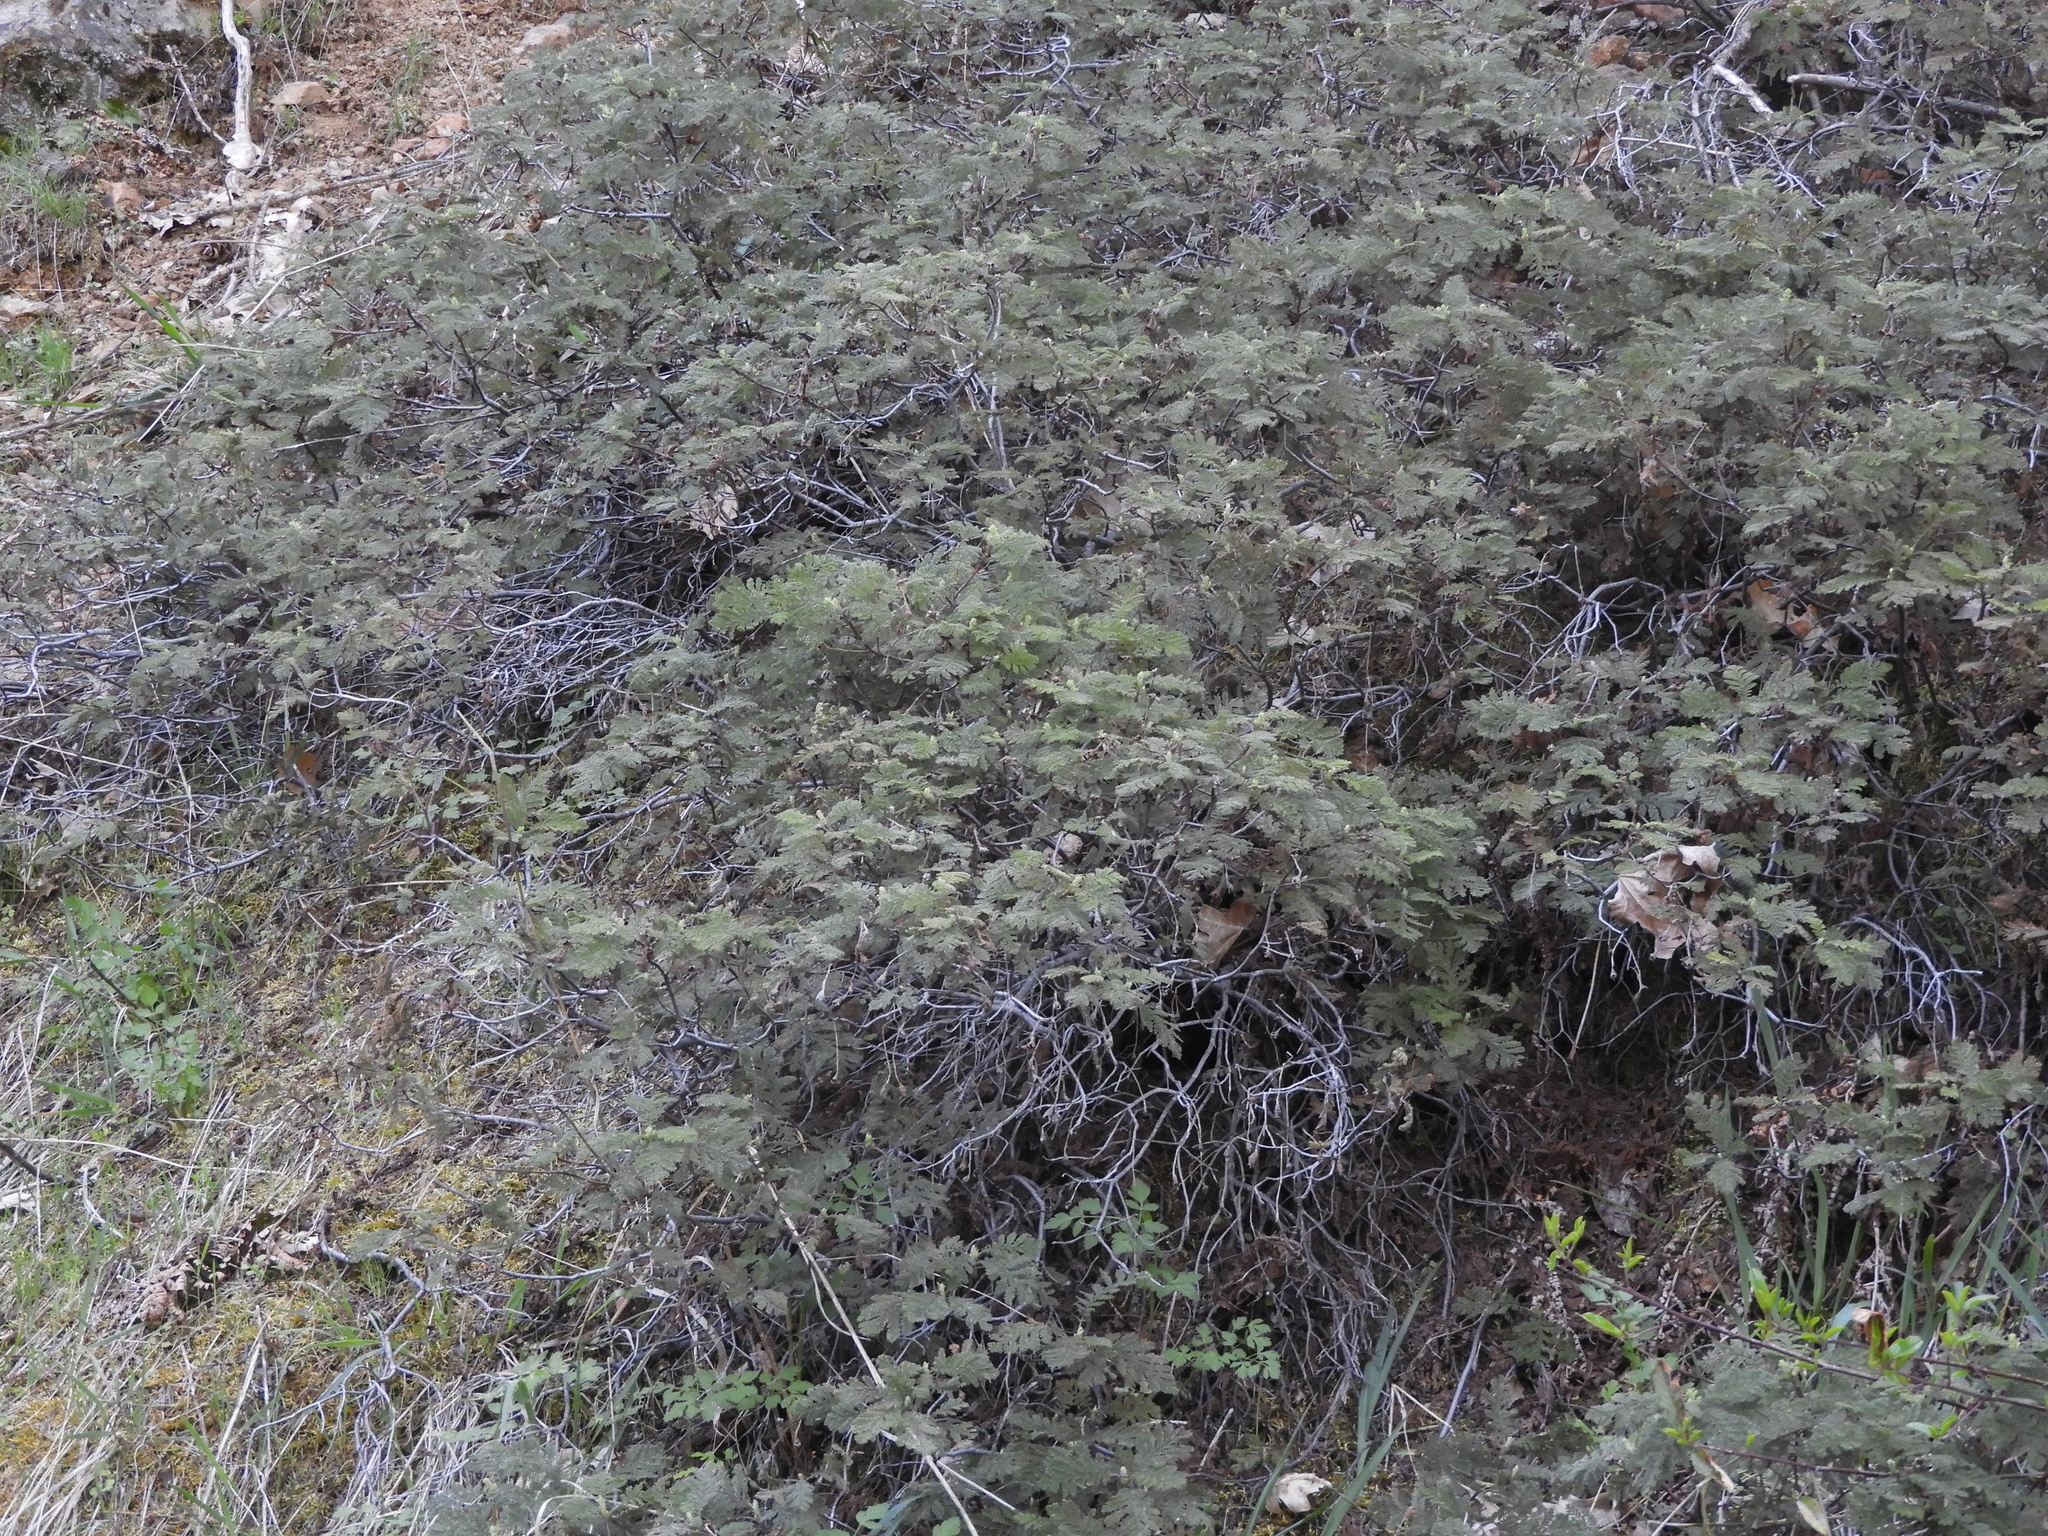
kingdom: Plantae
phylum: Tracheophyta
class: Magnoliopsida
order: Rosales
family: Rosaceae
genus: Chamaebatia
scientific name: Chamaebatia foliolosa
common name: Mountain misery
